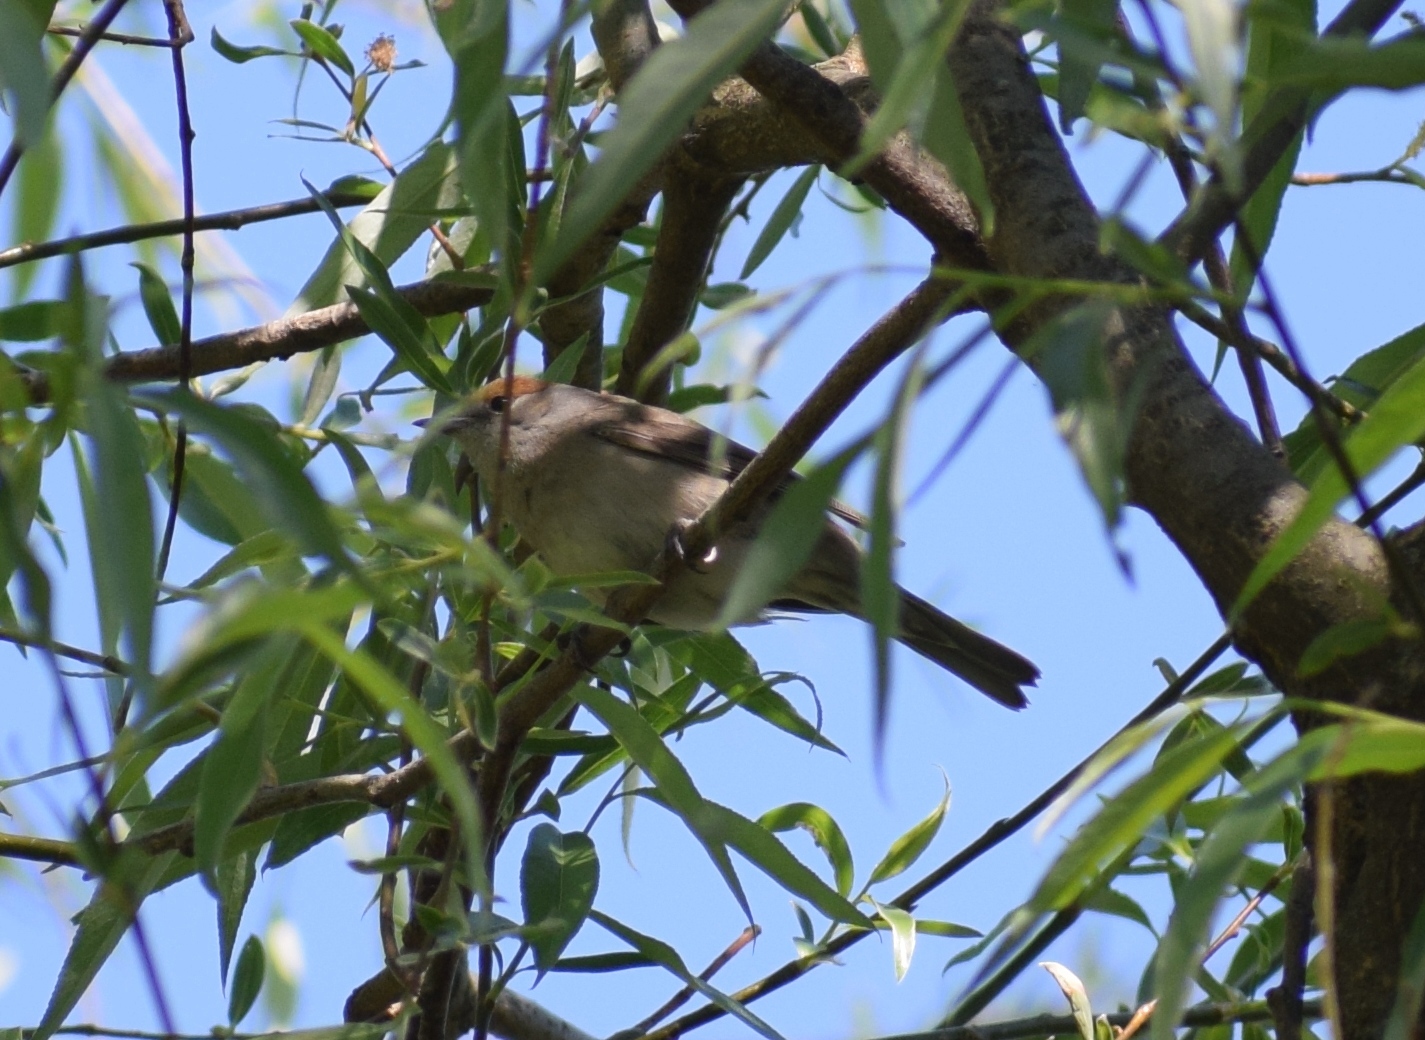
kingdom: Animalia
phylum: Chordata
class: Aves
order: Passeriformes
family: Sylviidae
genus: Sylvia
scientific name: Sylvia atricapilla
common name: Eurasian blackcap
